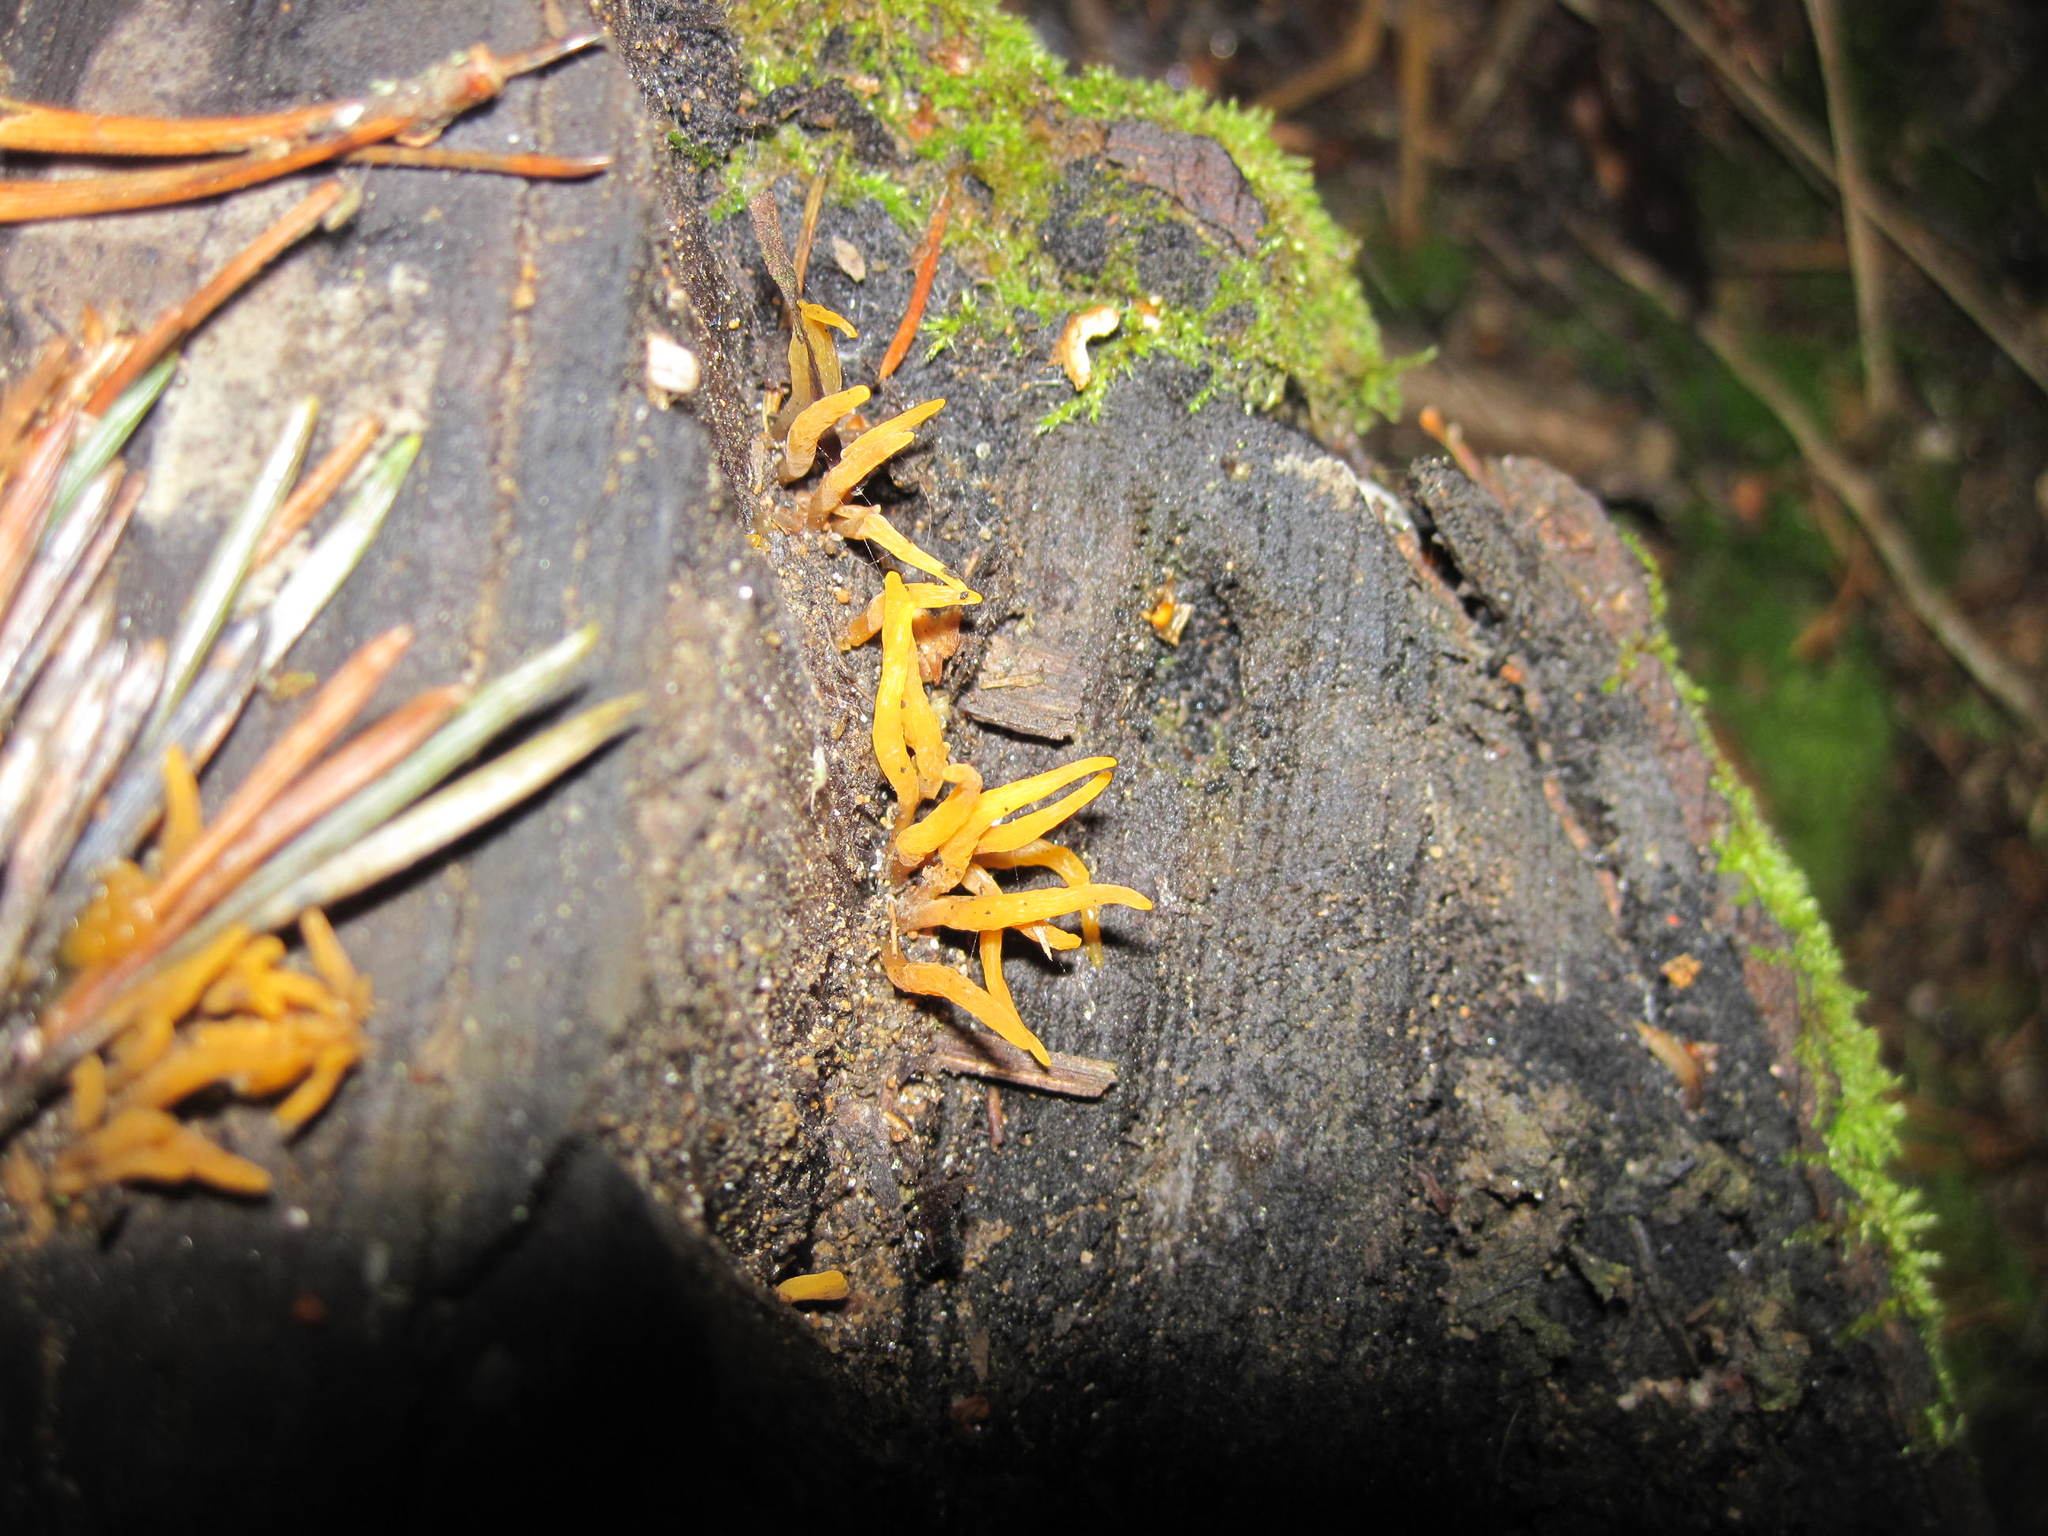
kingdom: Fungi
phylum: Basidiomycota
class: Dacrymycetes
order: Dacrymycetales
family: Dacrymycetaceae
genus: Calocera
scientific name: Calocera cornea
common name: Small stagshorn
